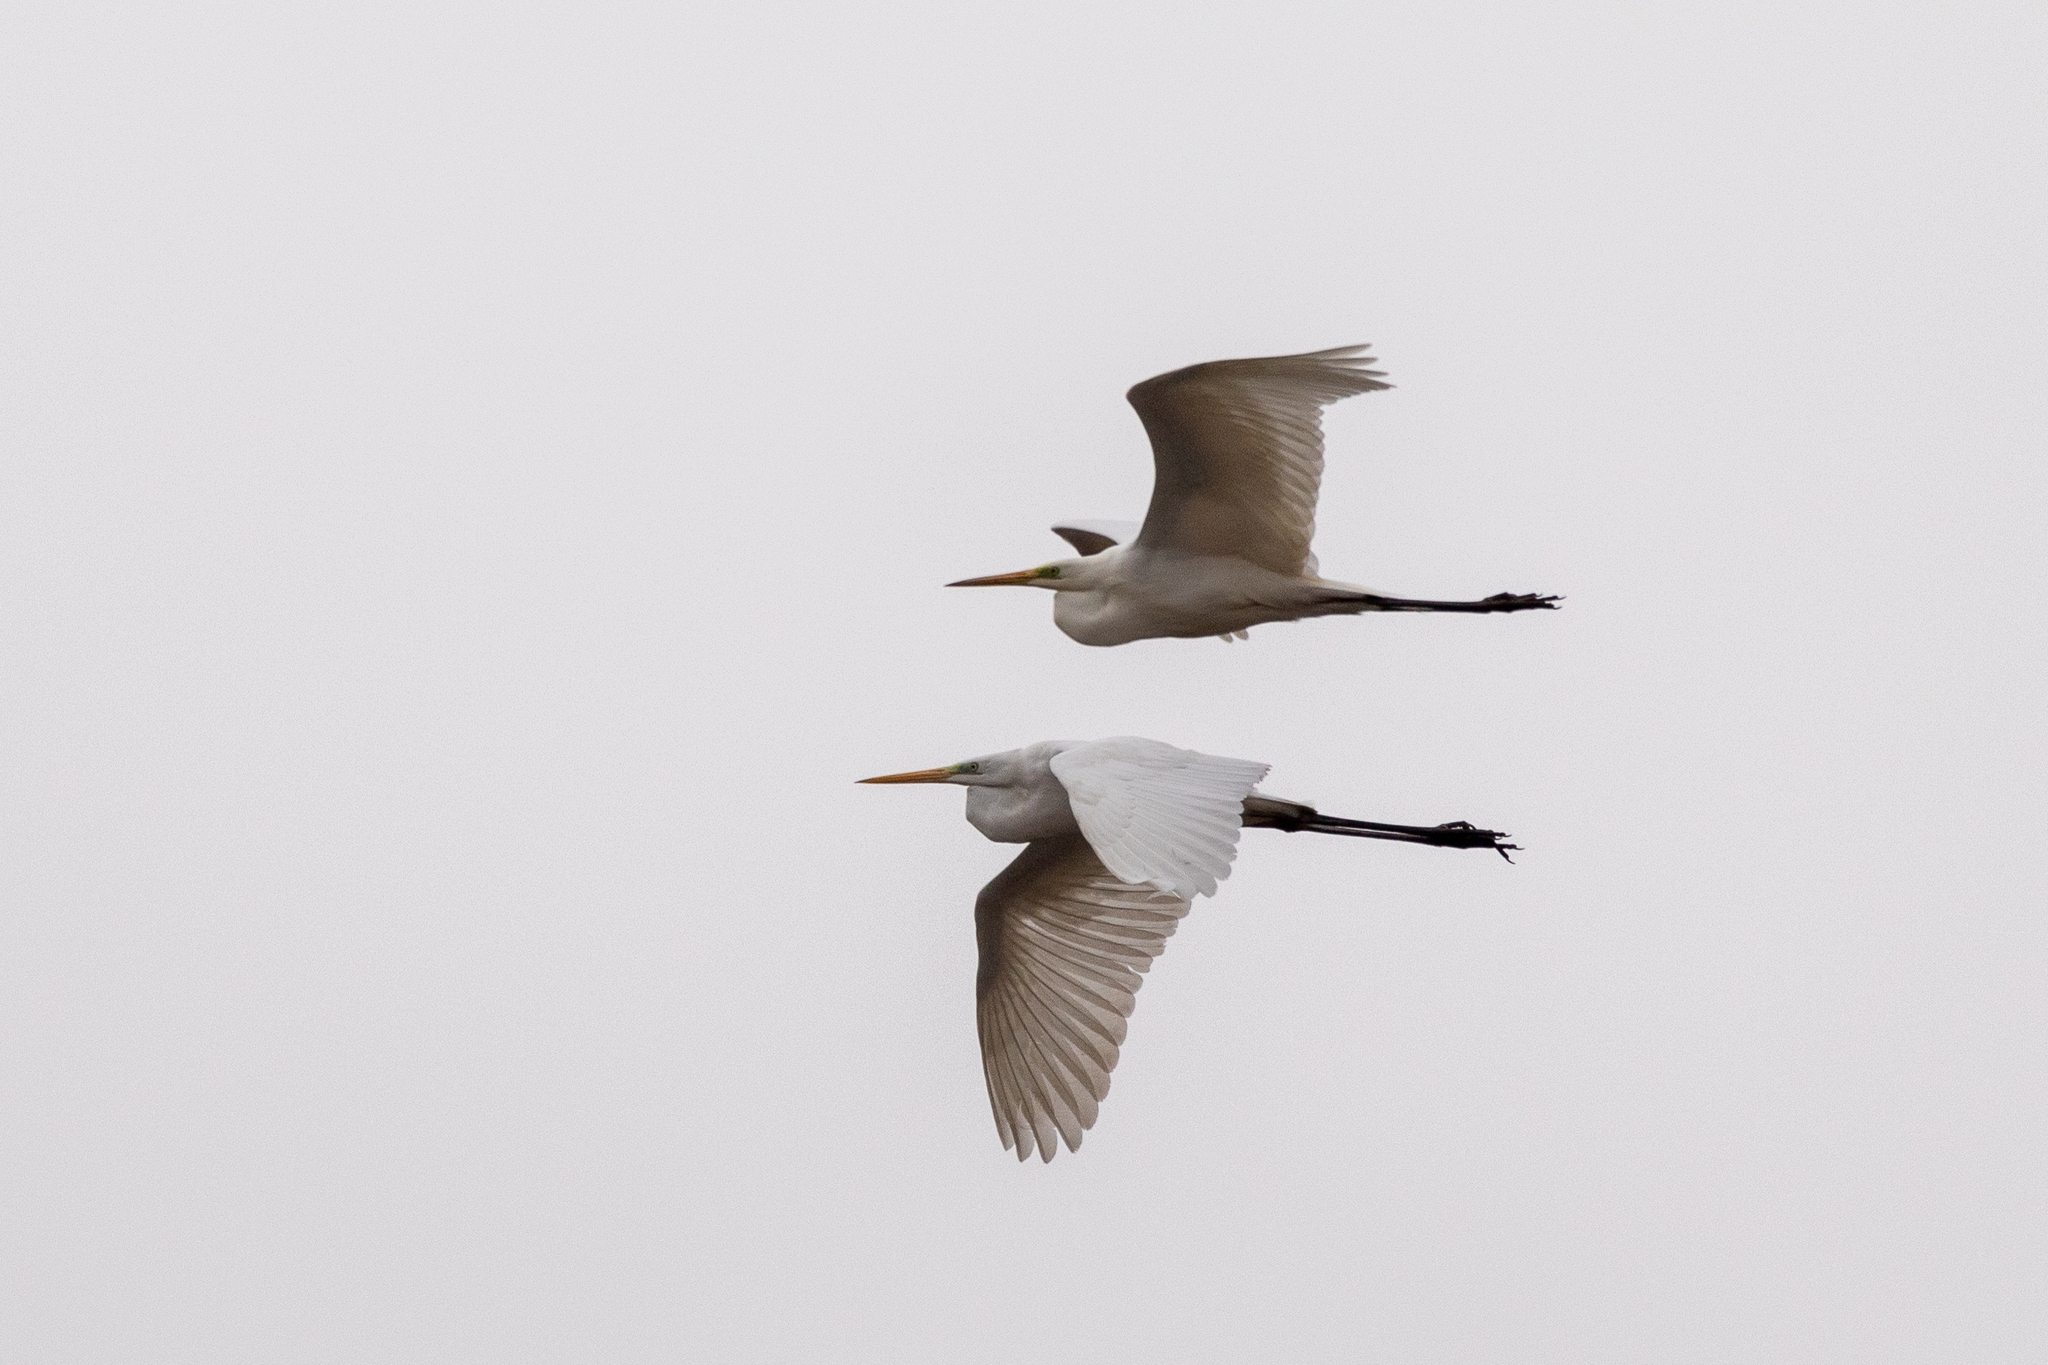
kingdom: Animalia
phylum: Chordata
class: Aves
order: Pelecaniformes
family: Ardeidae
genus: Ardea
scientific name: Ardea alba
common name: Great egret
